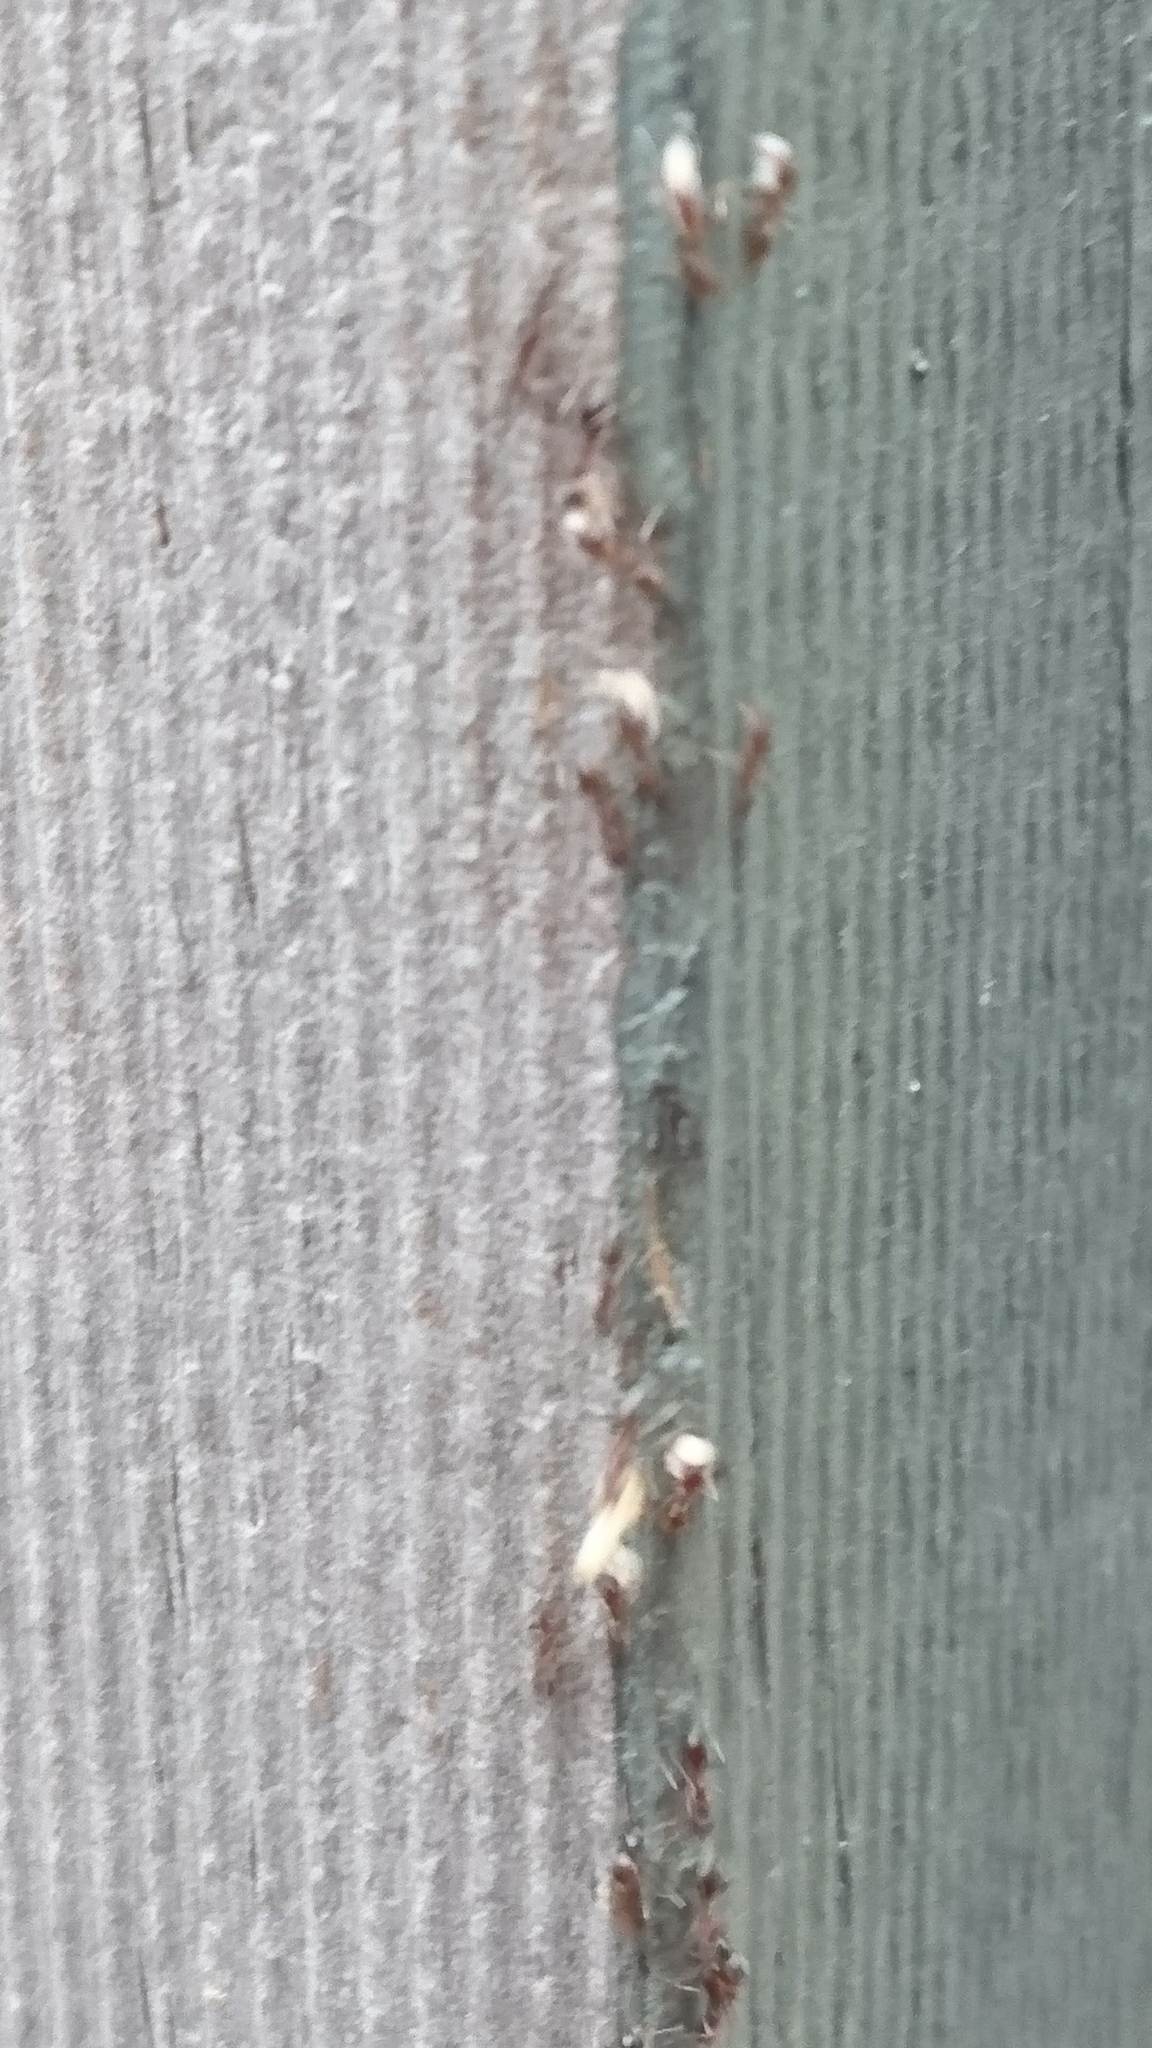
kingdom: Animalia
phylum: Arthropoda
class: Insecta
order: Hymenoptera
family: Formicidae
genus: Linepithema
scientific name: Linepithema humile
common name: Argentine ant
